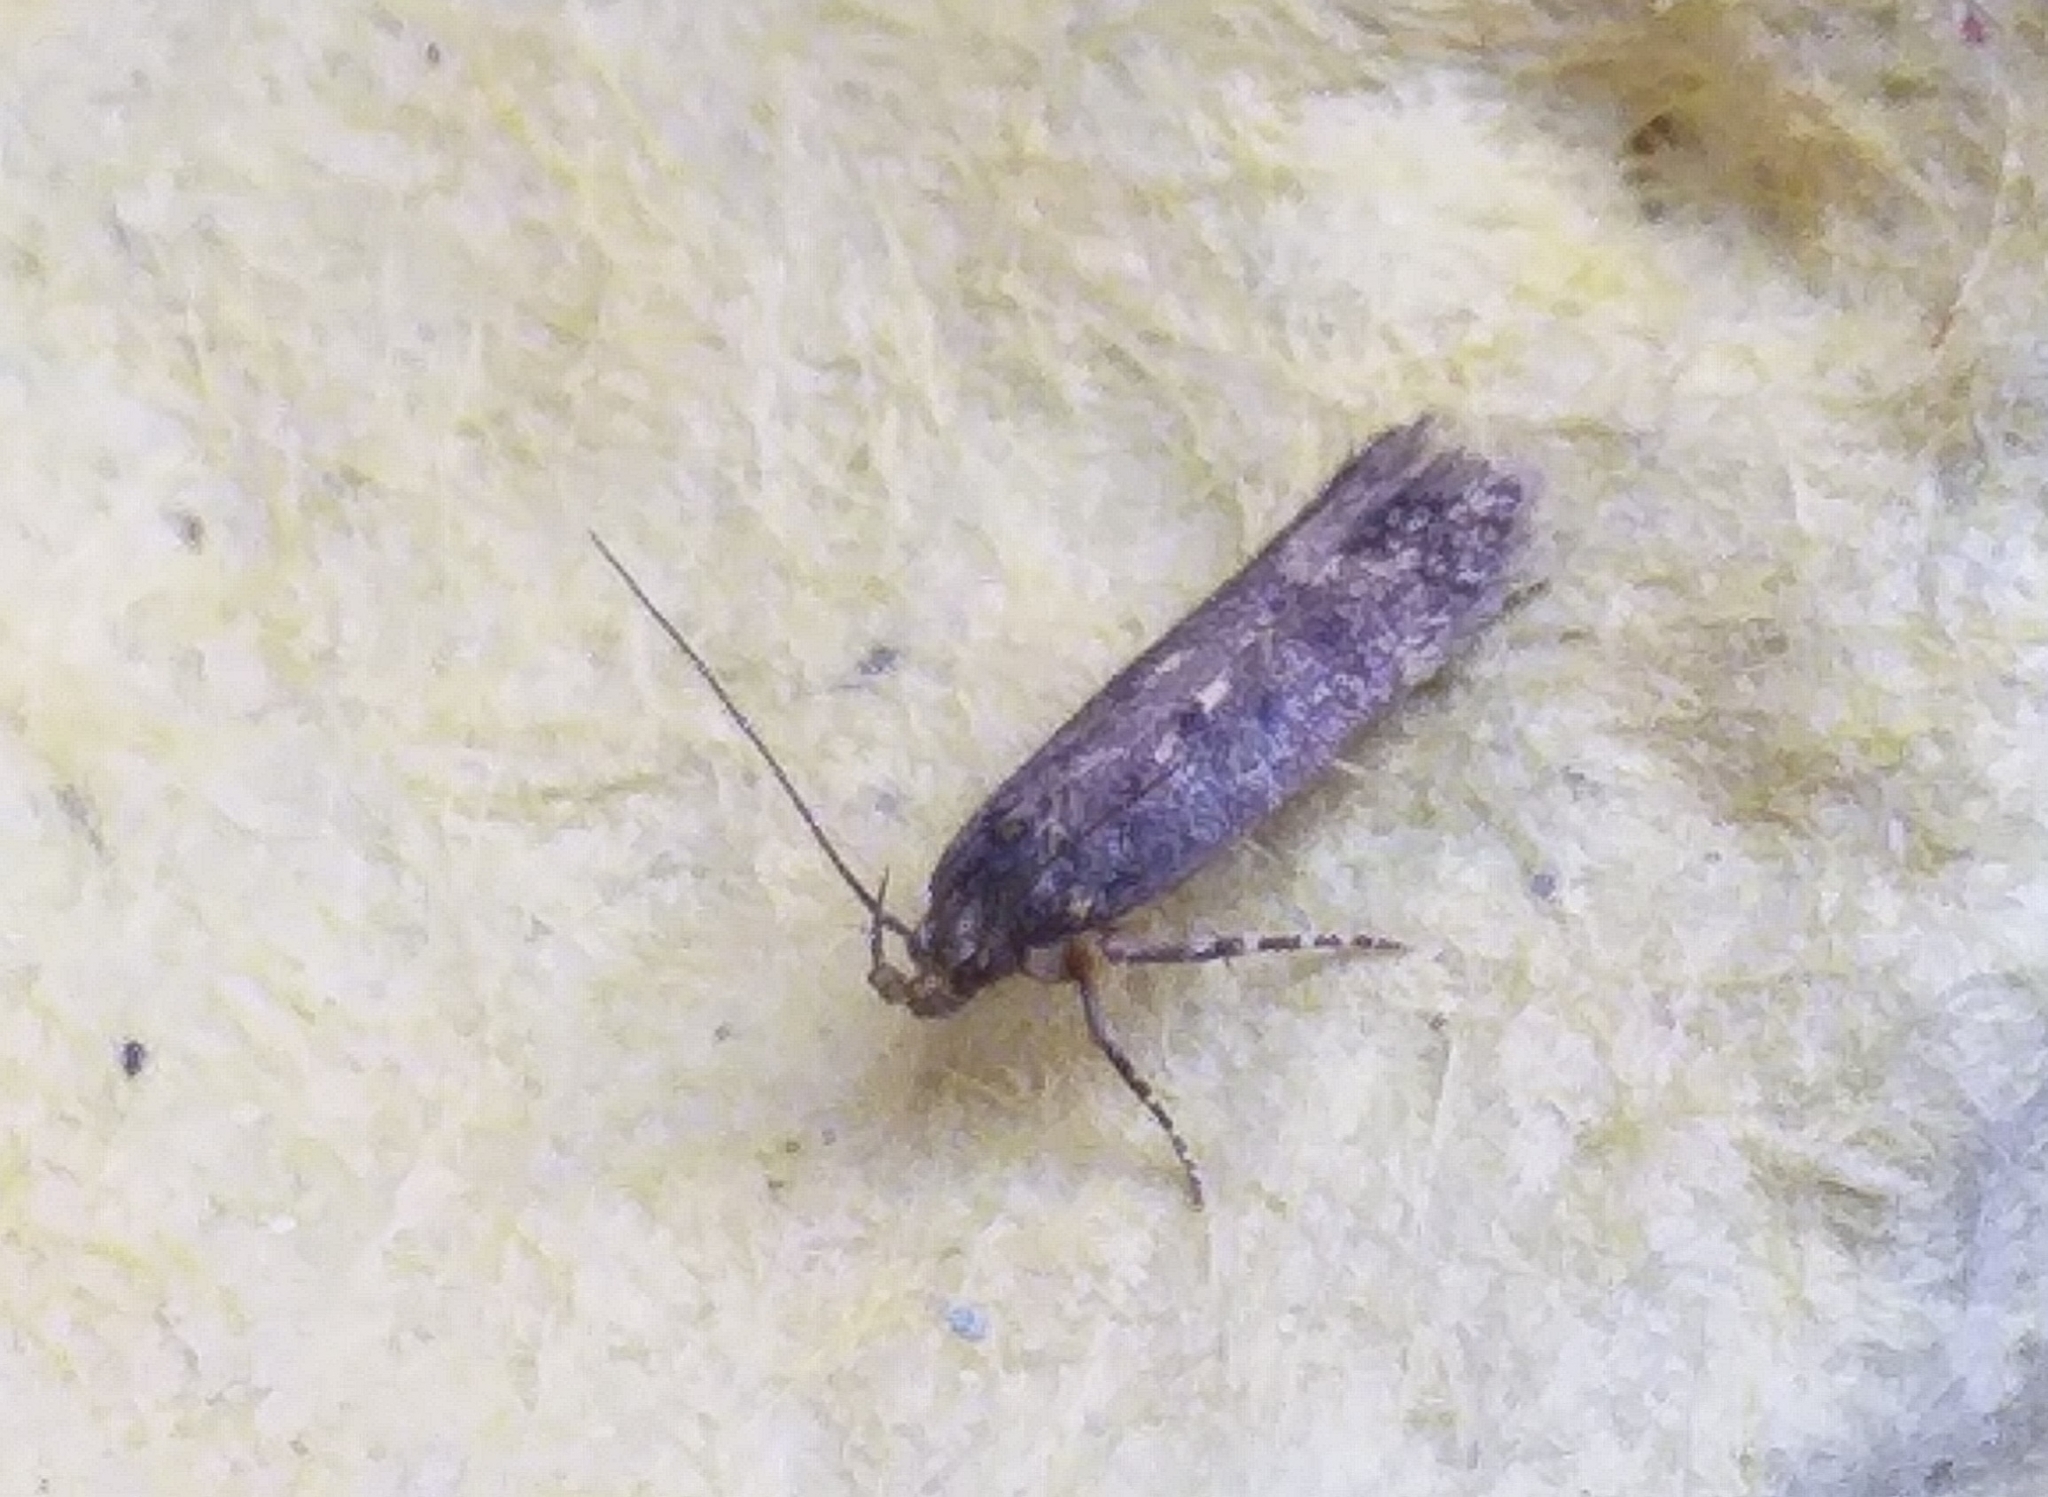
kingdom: Animalia
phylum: Arthropoda
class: Insecta
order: Lepidoptera
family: Gelechiidae
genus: Bryotropha
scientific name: Bryotropha affinis
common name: Dark groundling
